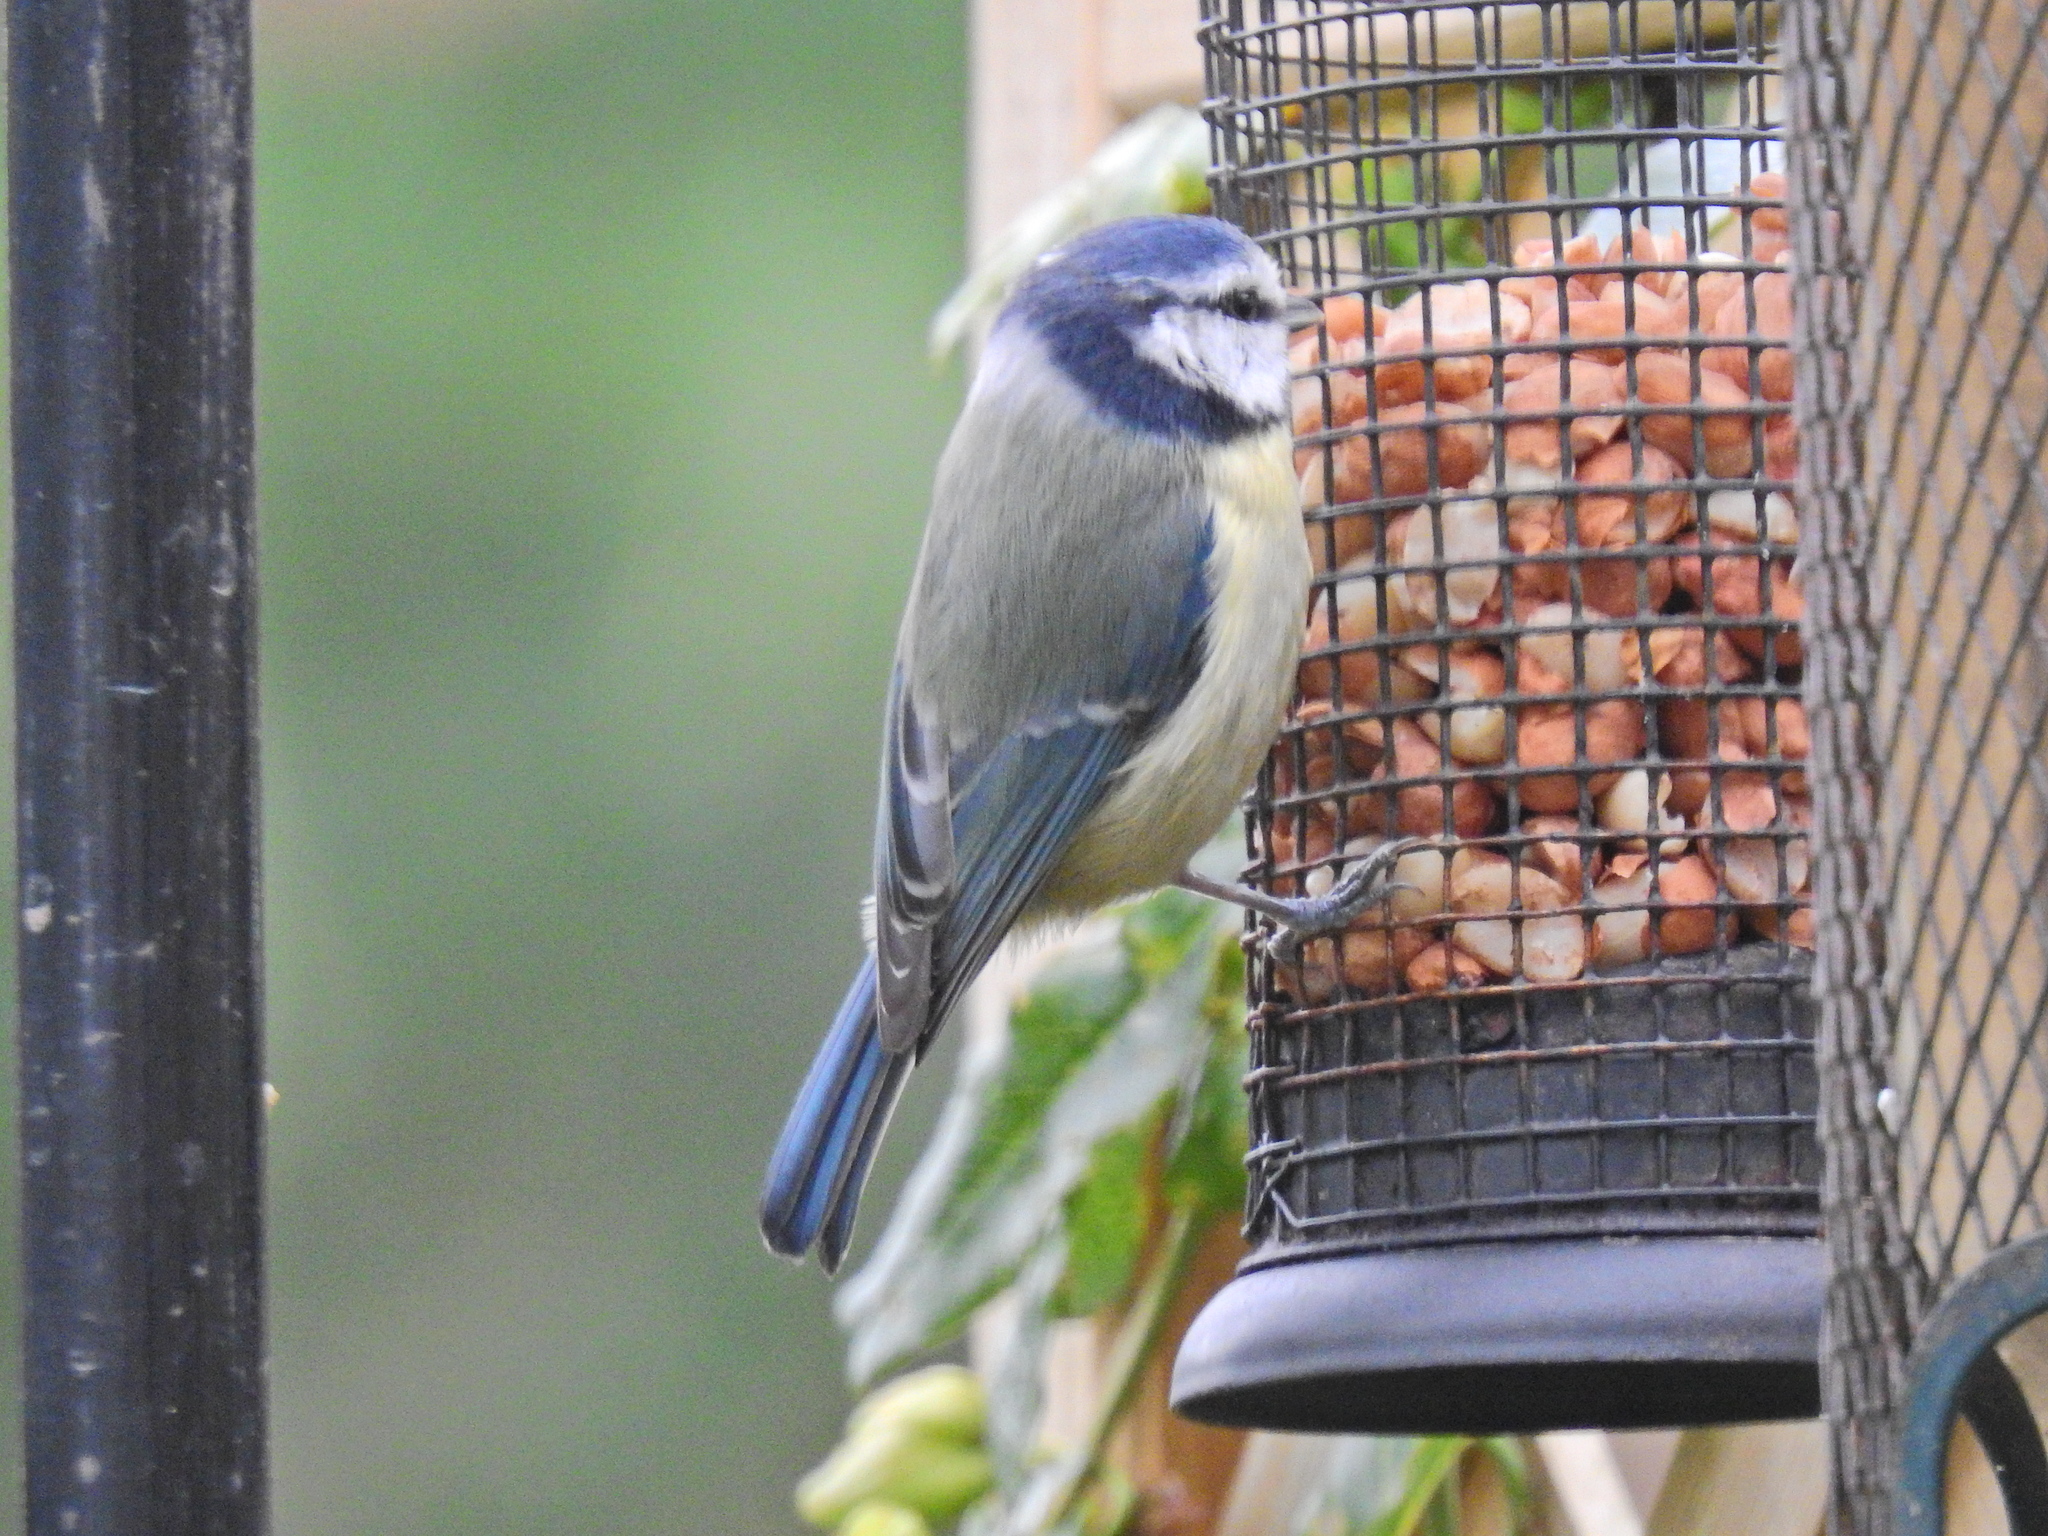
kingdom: Animalia
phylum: Chordata
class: Aves
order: Passeriformes
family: Paridae
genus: Cyanistes
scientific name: Cyanistes caeruleus
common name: Eurasian blue tit
